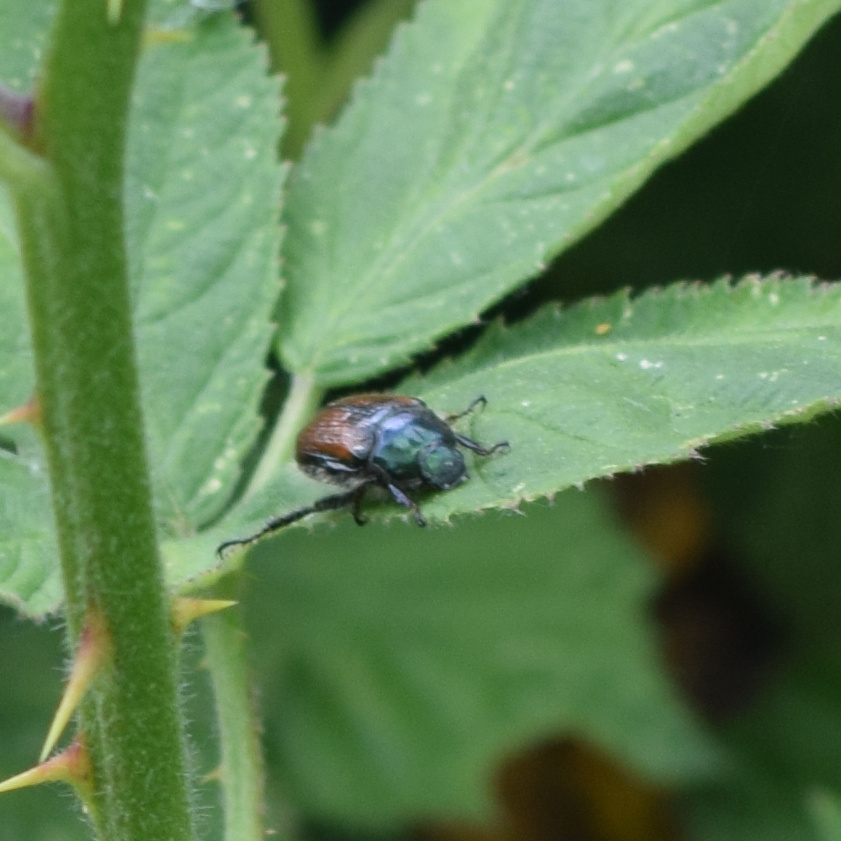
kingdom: Animalia
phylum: Arthropoda
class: Insecta
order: Coleoptera
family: Scarabaeidae
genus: Phyllopertha
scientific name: Phyllopertha horticola
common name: Garden chafer
